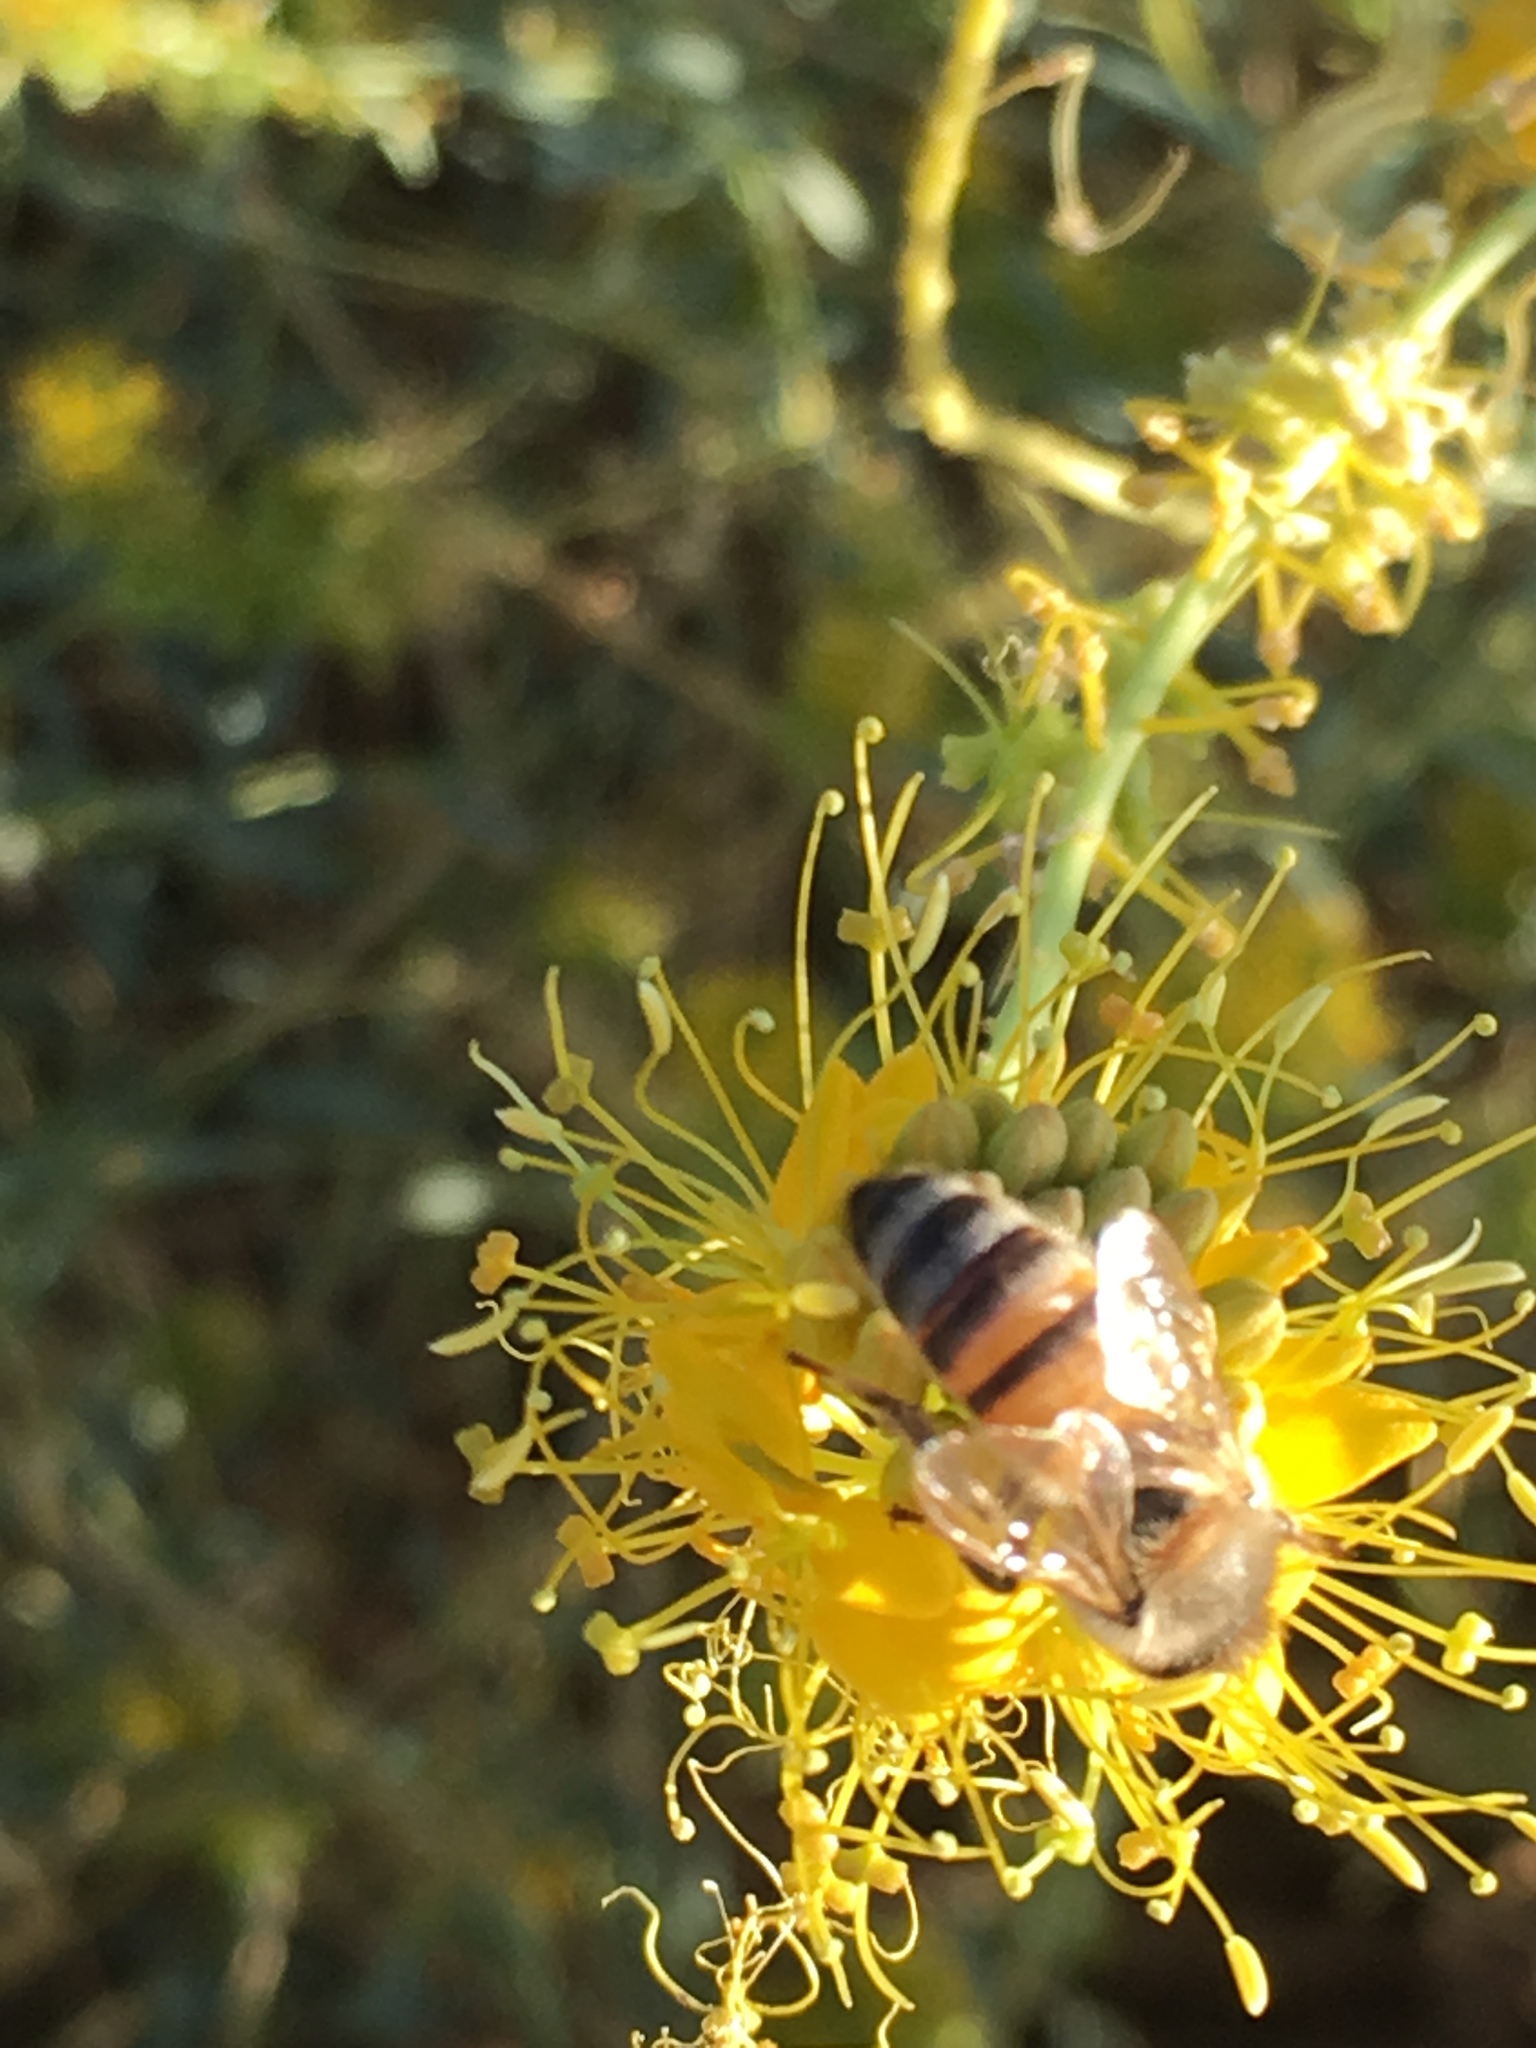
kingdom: Animalia
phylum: Arthropoda
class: Insecta
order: Hymenoptera
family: Apidae
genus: Apis
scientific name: Apis mellifera
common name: Honey bee
